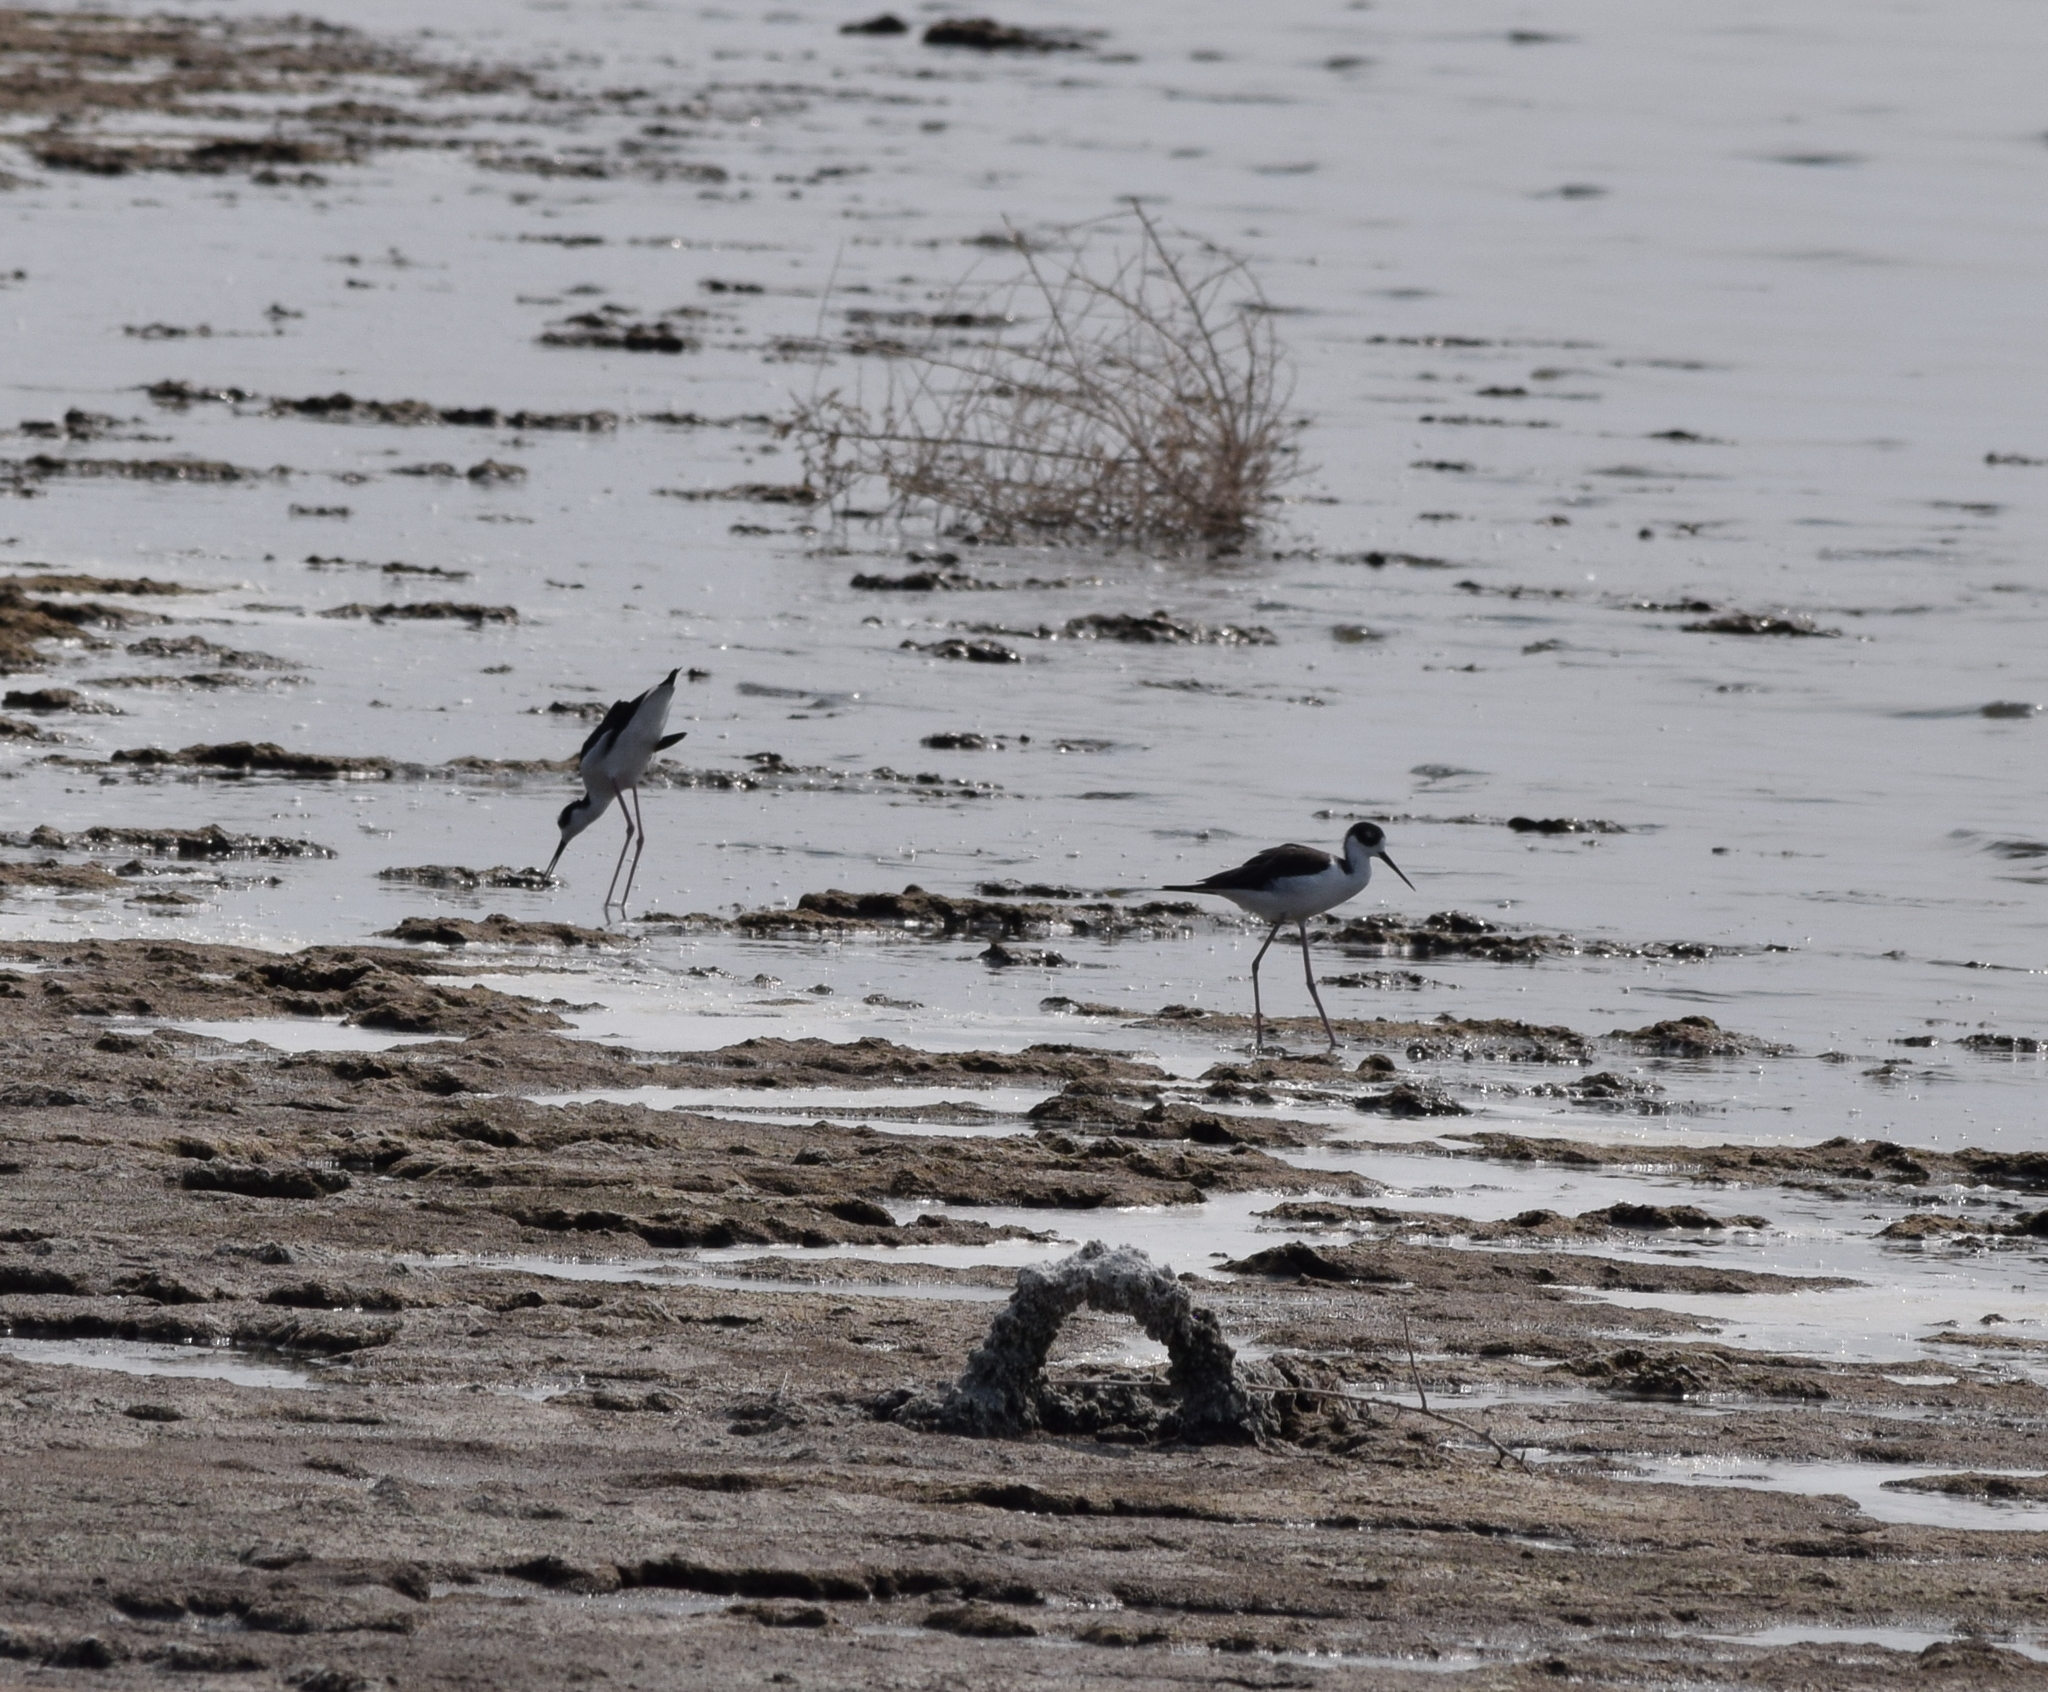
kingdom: Animalia
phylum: Chordata
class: Aves
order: Charadriiformes
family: Recurvirostridae
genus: Himantopus
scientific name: Himantopus mexicanus
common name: Black-necked stilt
